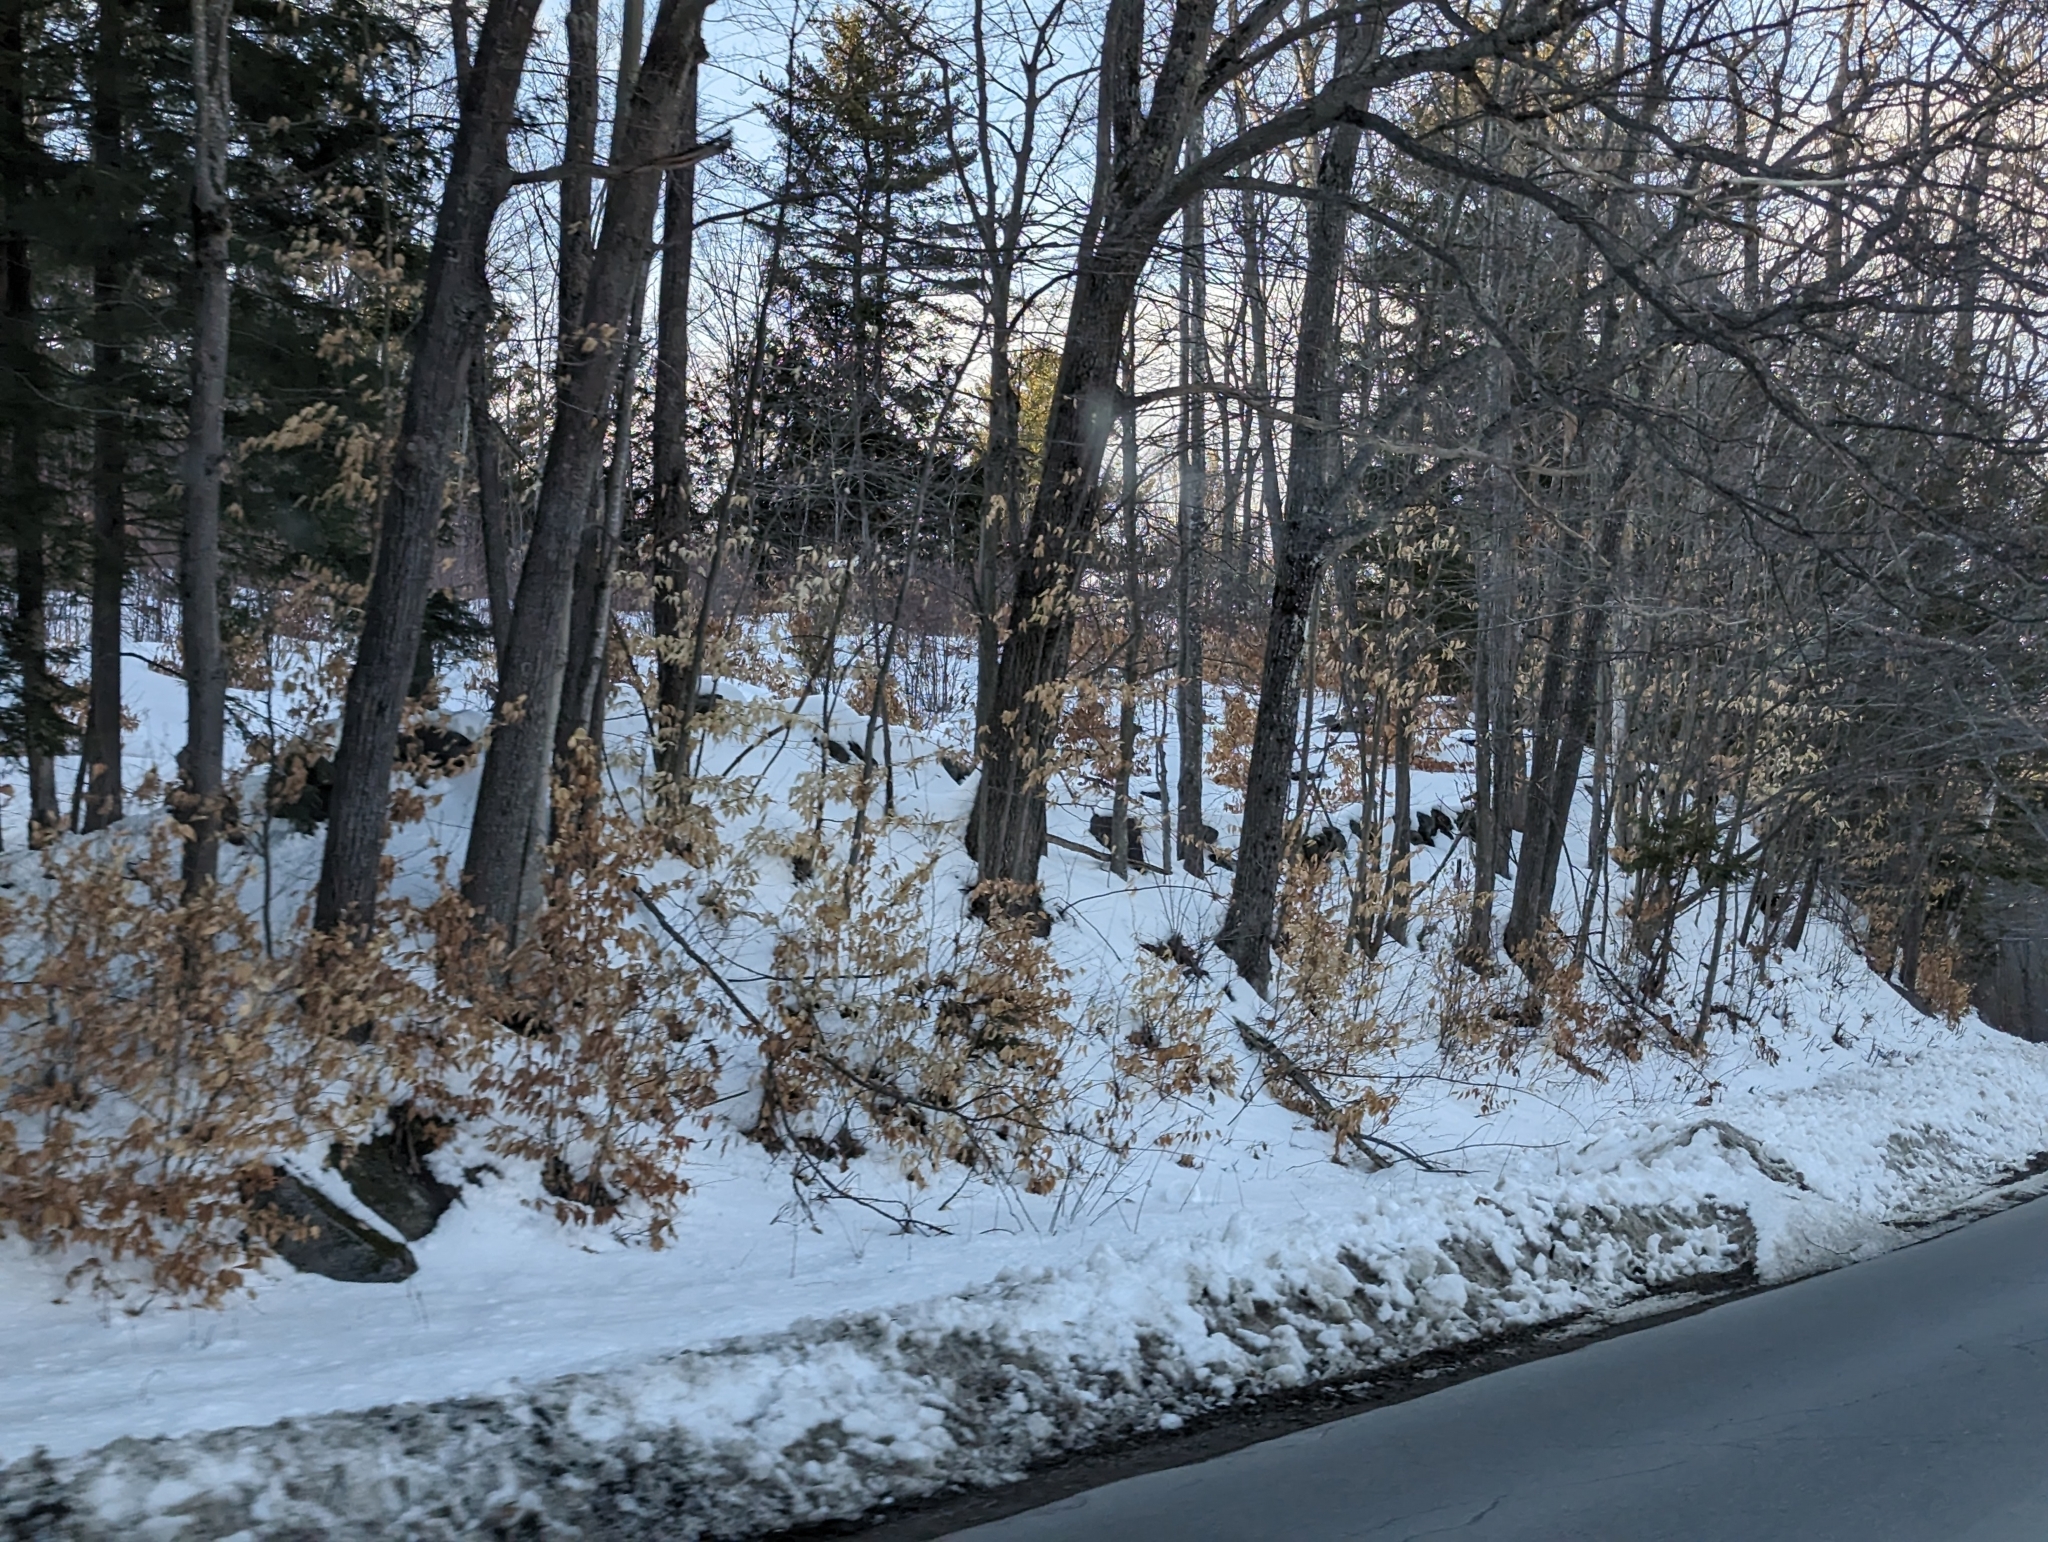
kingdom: Plantae
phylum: Tracheophyta
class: Magnoliopsida
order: Fagales
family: Fagaceae
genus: Fagus
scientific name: Fagus grandifolia
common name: American beech
